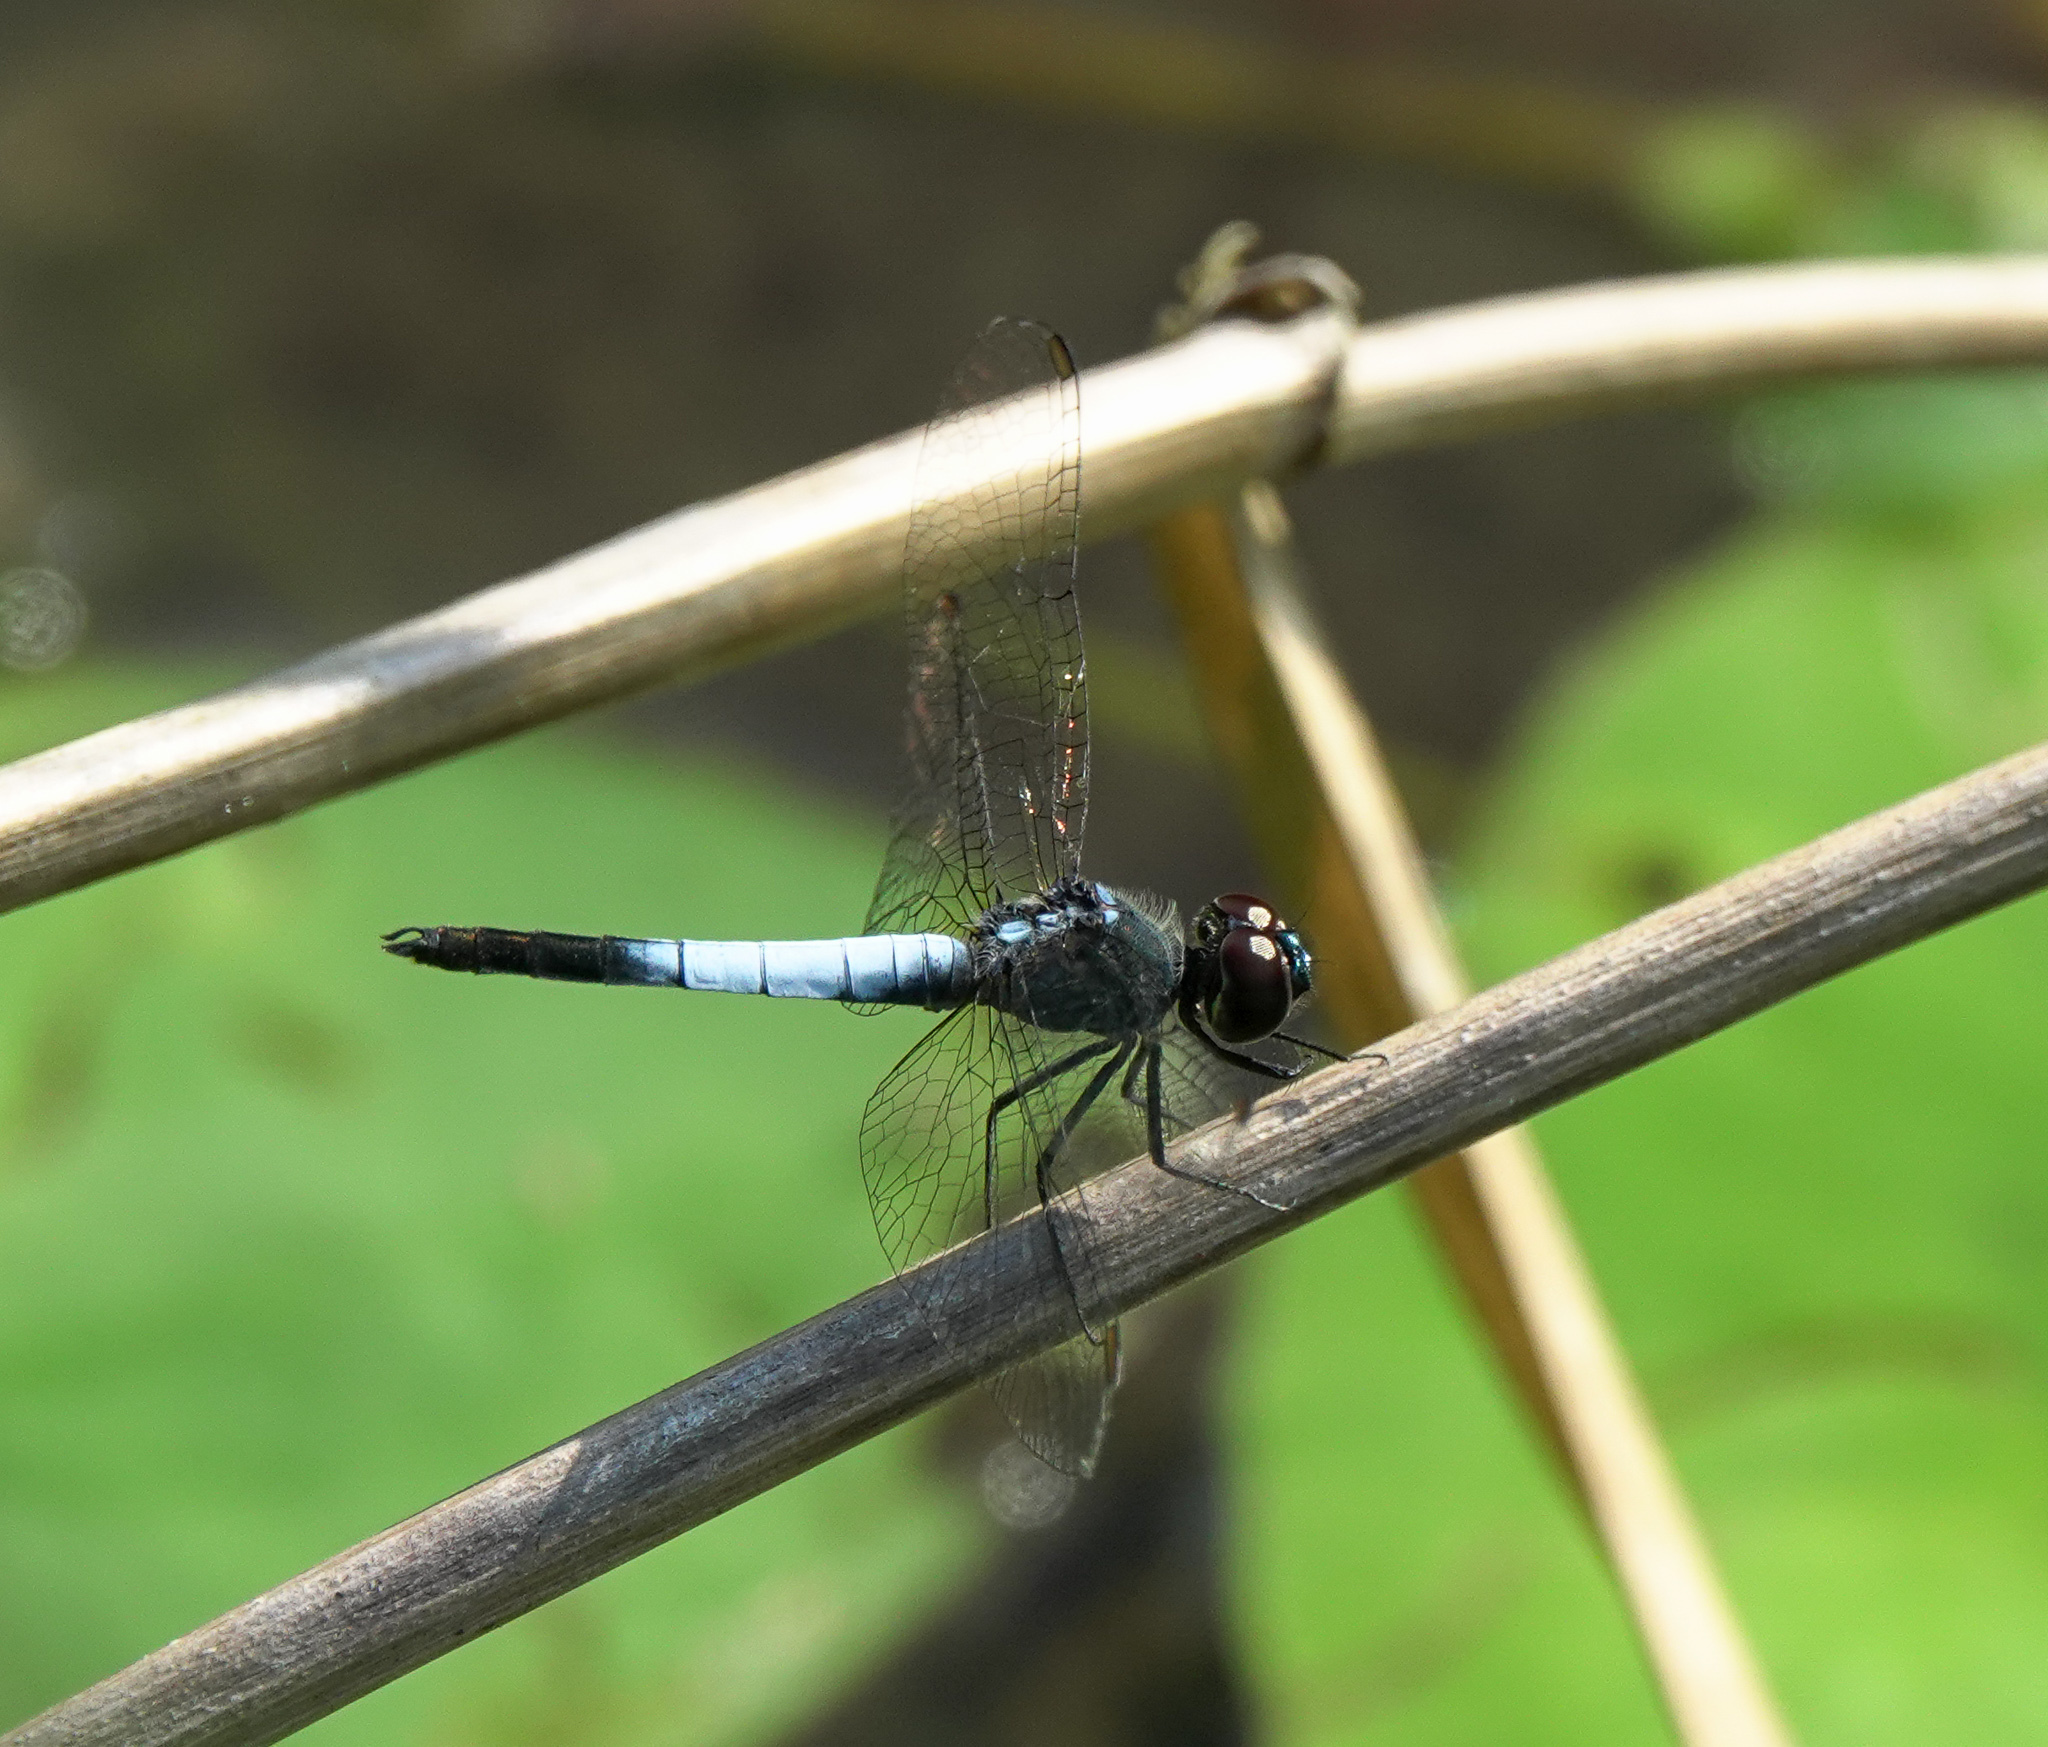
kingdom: Animalia
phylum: Arthropoda
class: Insecta
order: Odonata
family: Libellulidae
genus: Brachydiplax
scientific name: Brachydiplax farinosa
